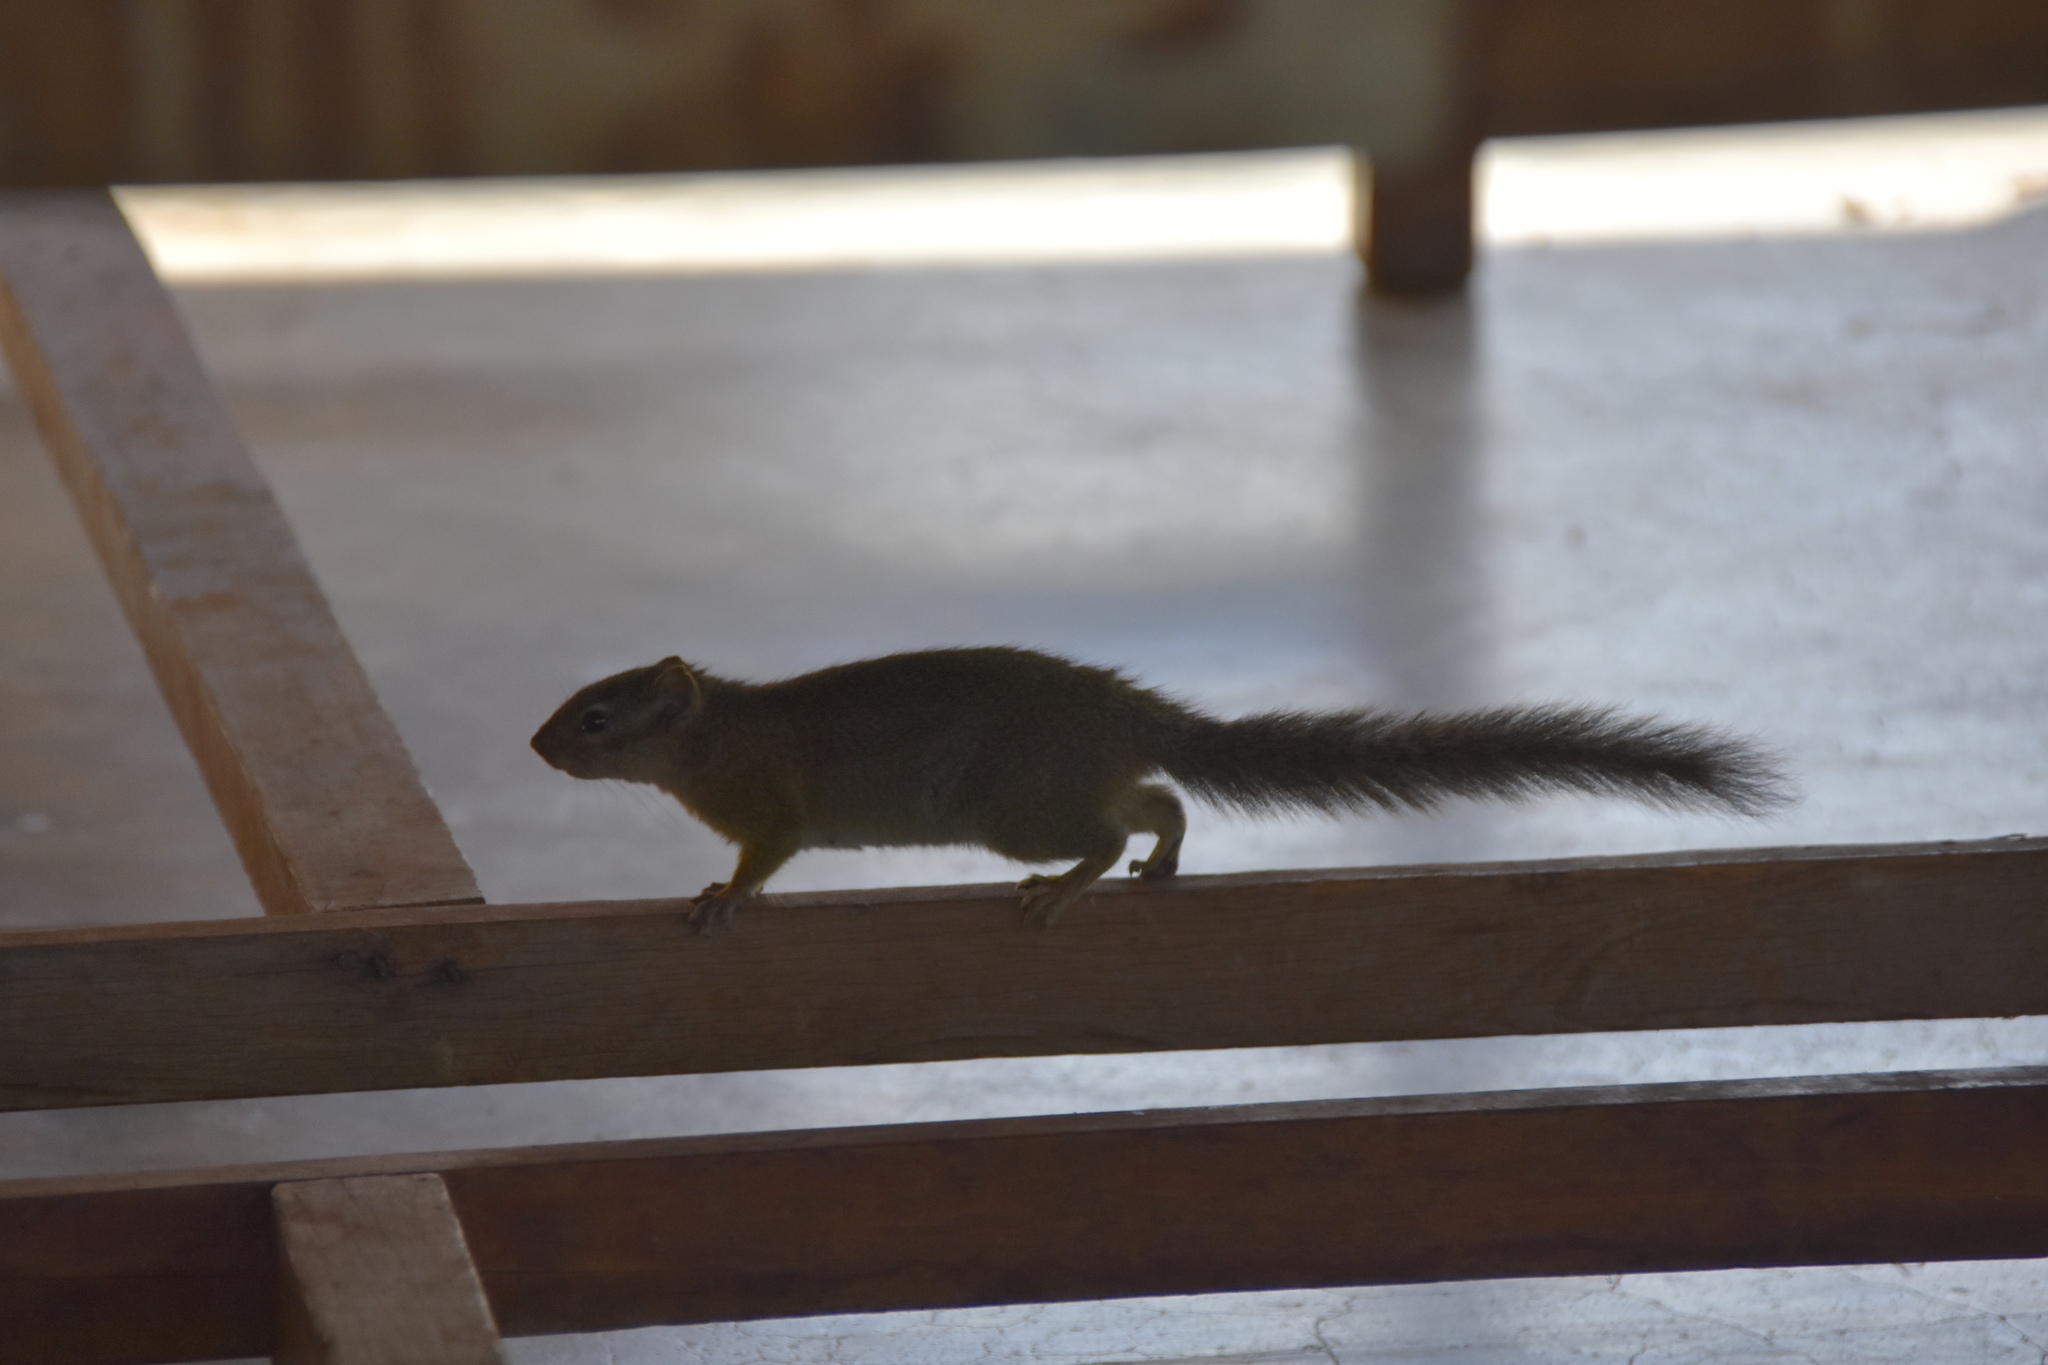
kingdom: Animalia
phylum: Chordata
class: Mammalia
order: Rodentia
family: Sciuridae
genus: Paraxerus
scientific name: Paraxerus ochraceus
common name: Ochre bush squirrel
